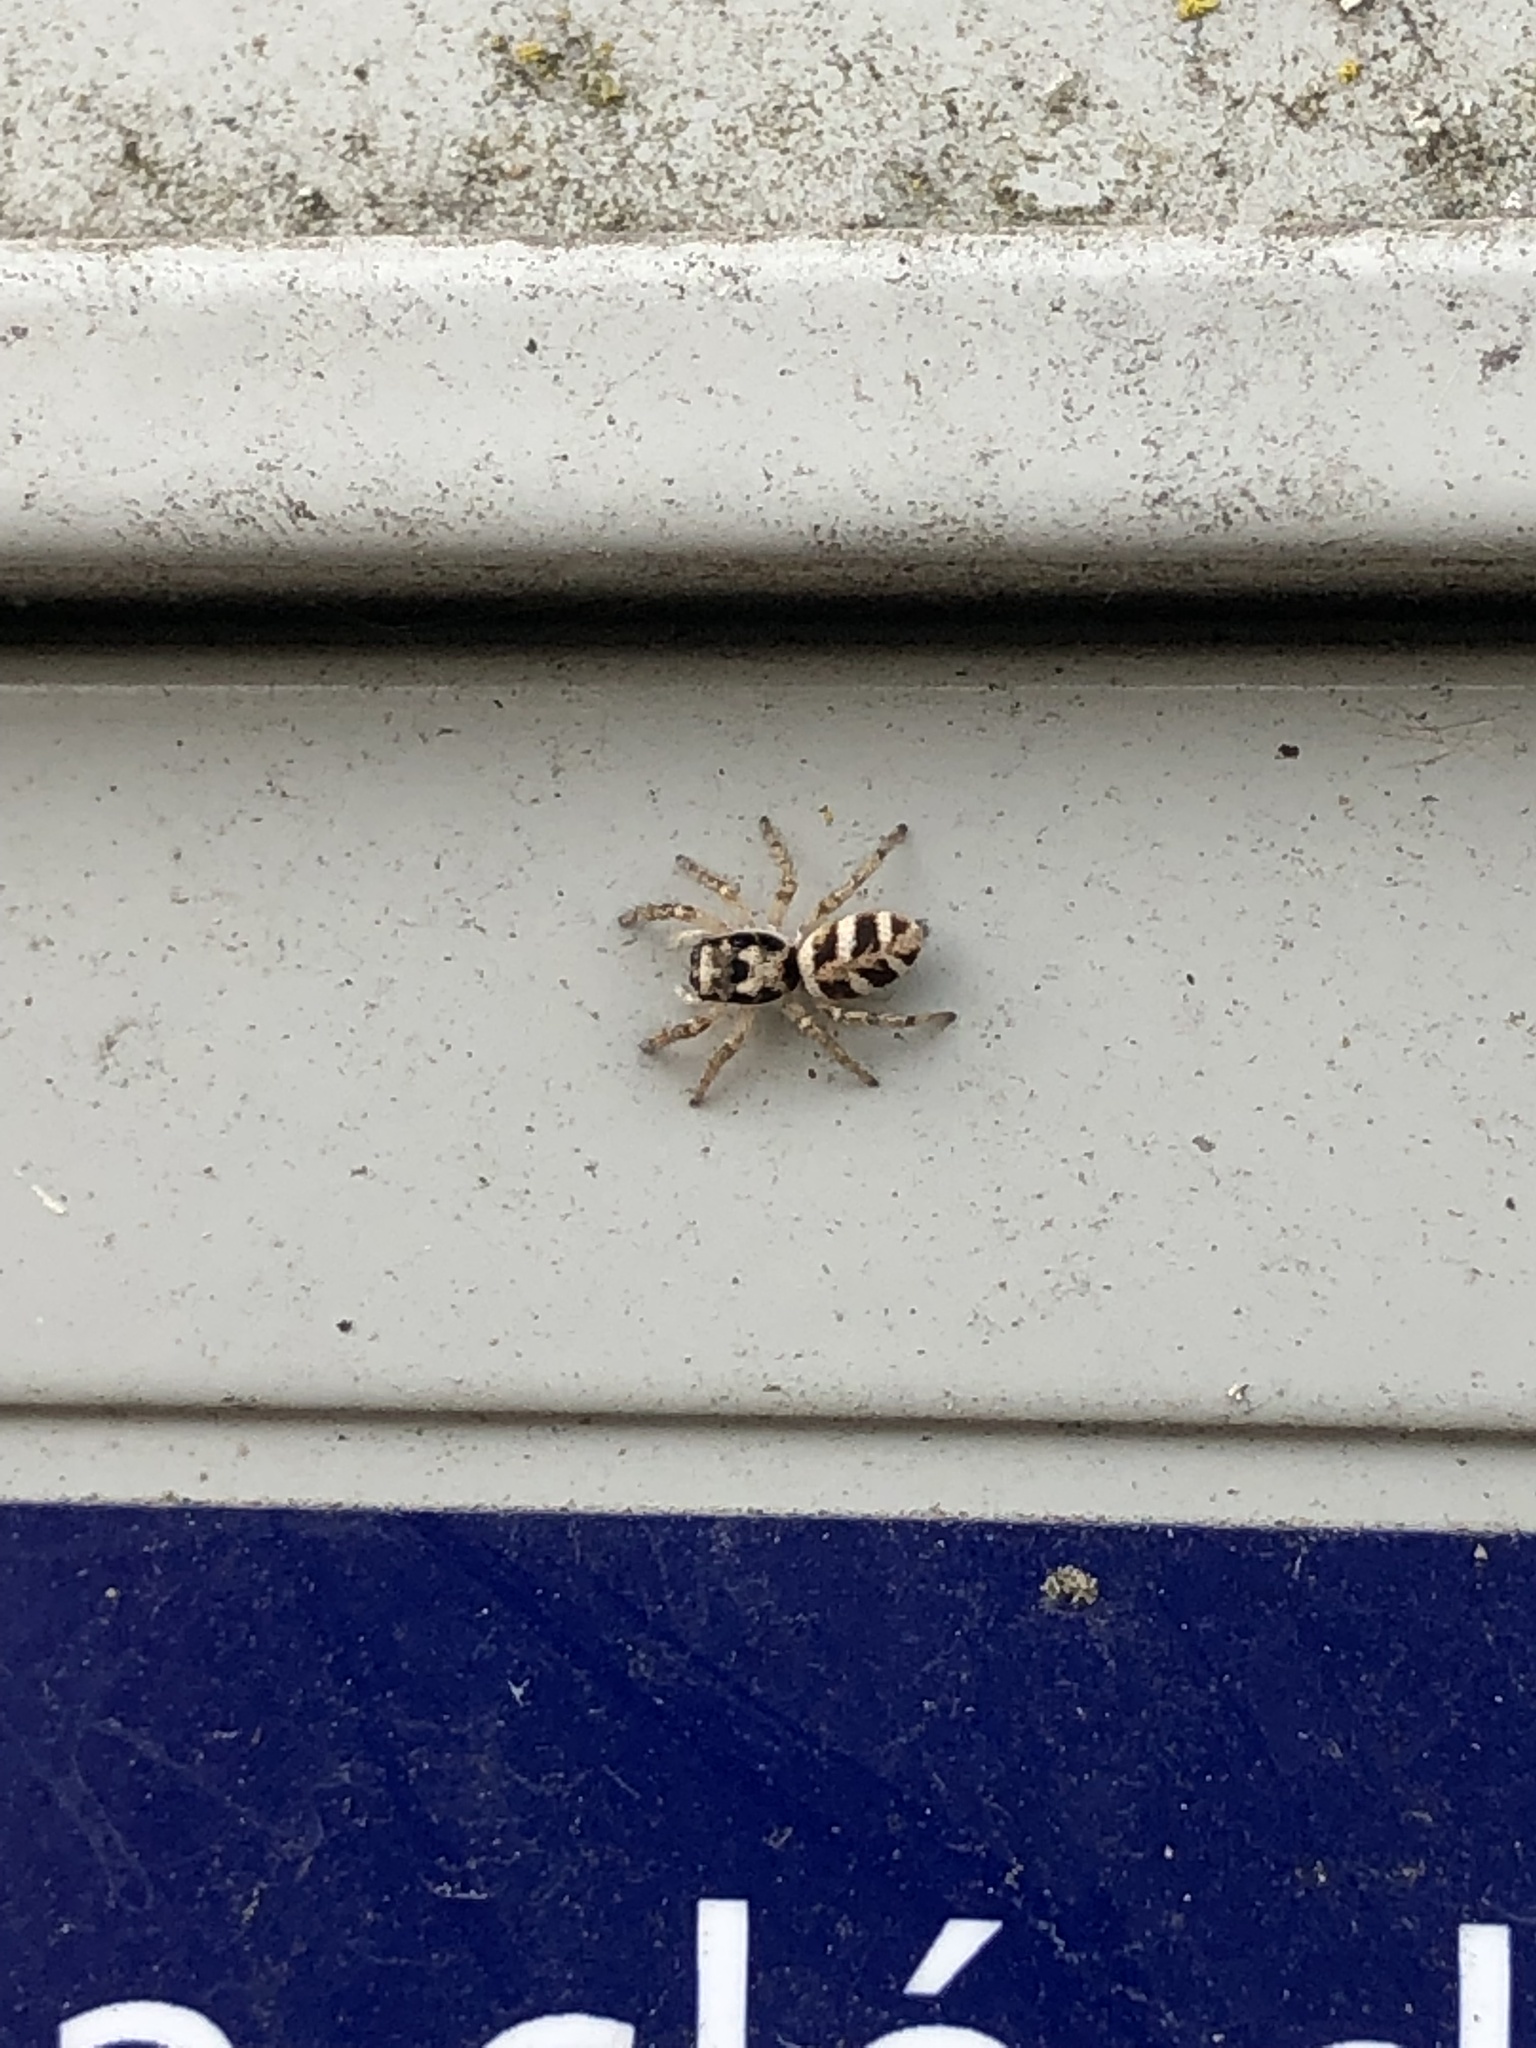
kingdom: Animalia
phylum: Arthropoda
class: Arachnida
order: Araneae
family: Salticidae
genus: Salticus
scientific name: Salticus scenicus
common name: Zebra jumper
